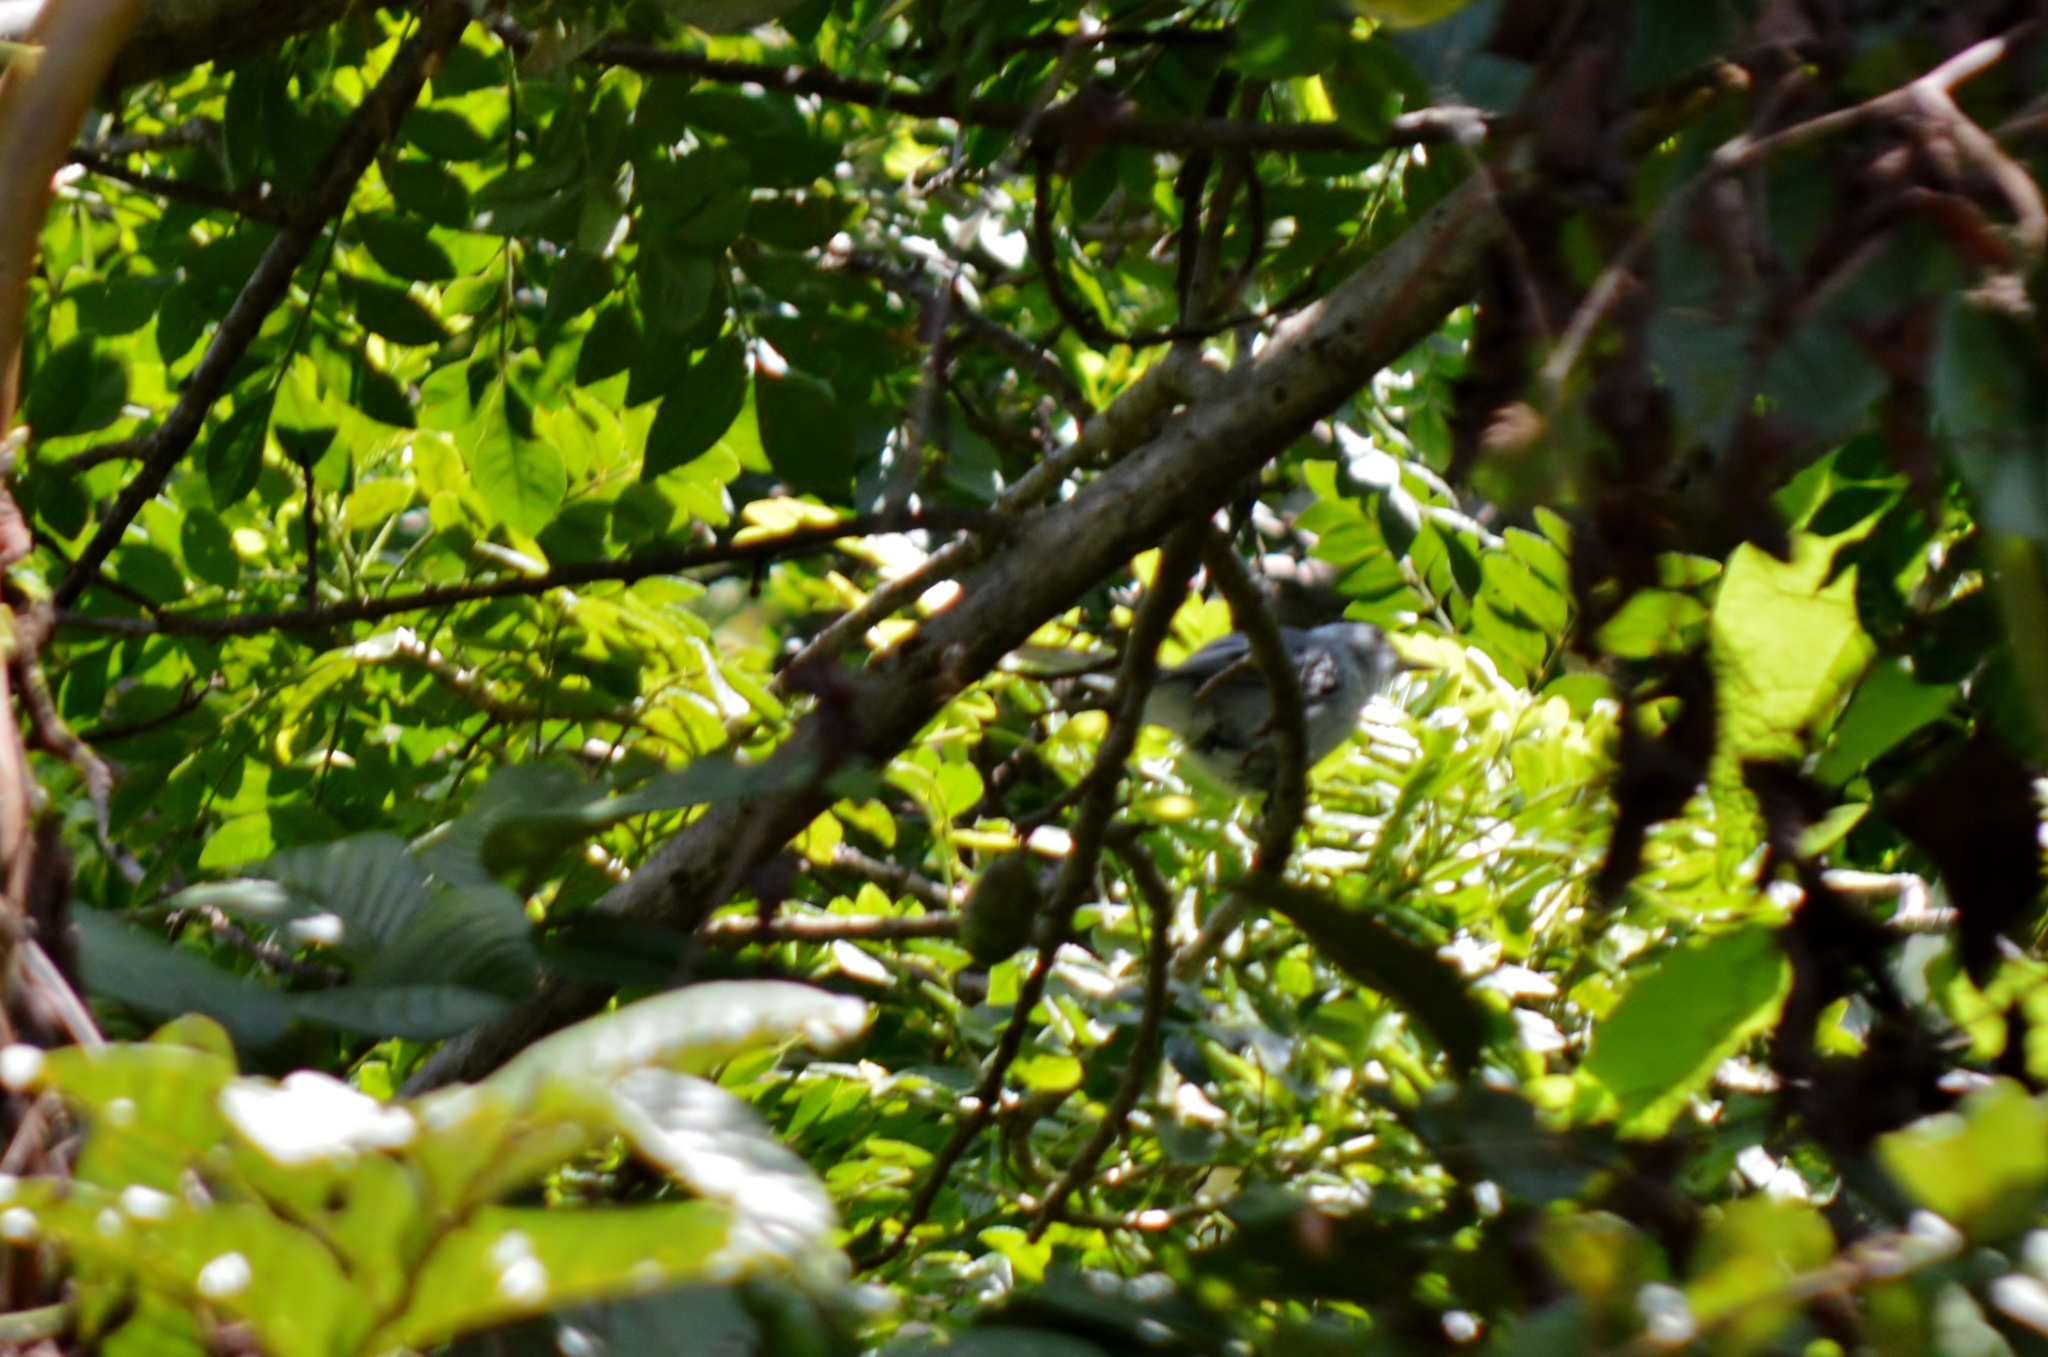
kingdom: Animalia
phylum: Chordata
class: Aves
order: Passeriformes
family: Polioptilidae
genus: Polioptila
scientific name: Polioptila dumicola
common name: Masked gnatcatcher
